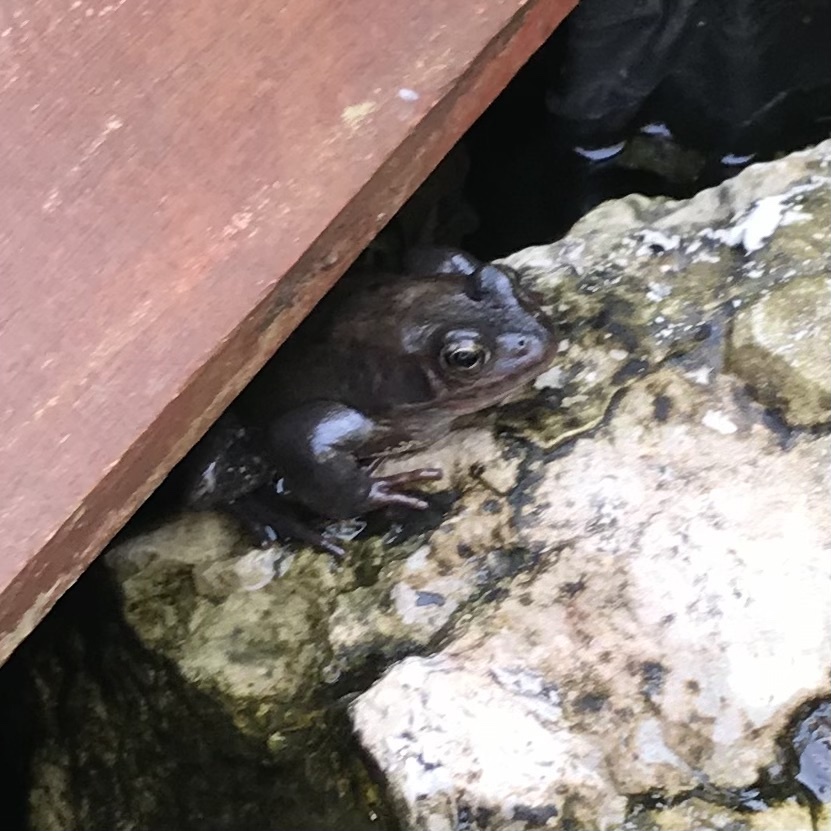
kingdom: Animalia
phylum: Chordata
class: Amphibia
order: Anura
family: Ranidae
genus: Rana
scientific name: Rana temporaria
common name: Common frog
